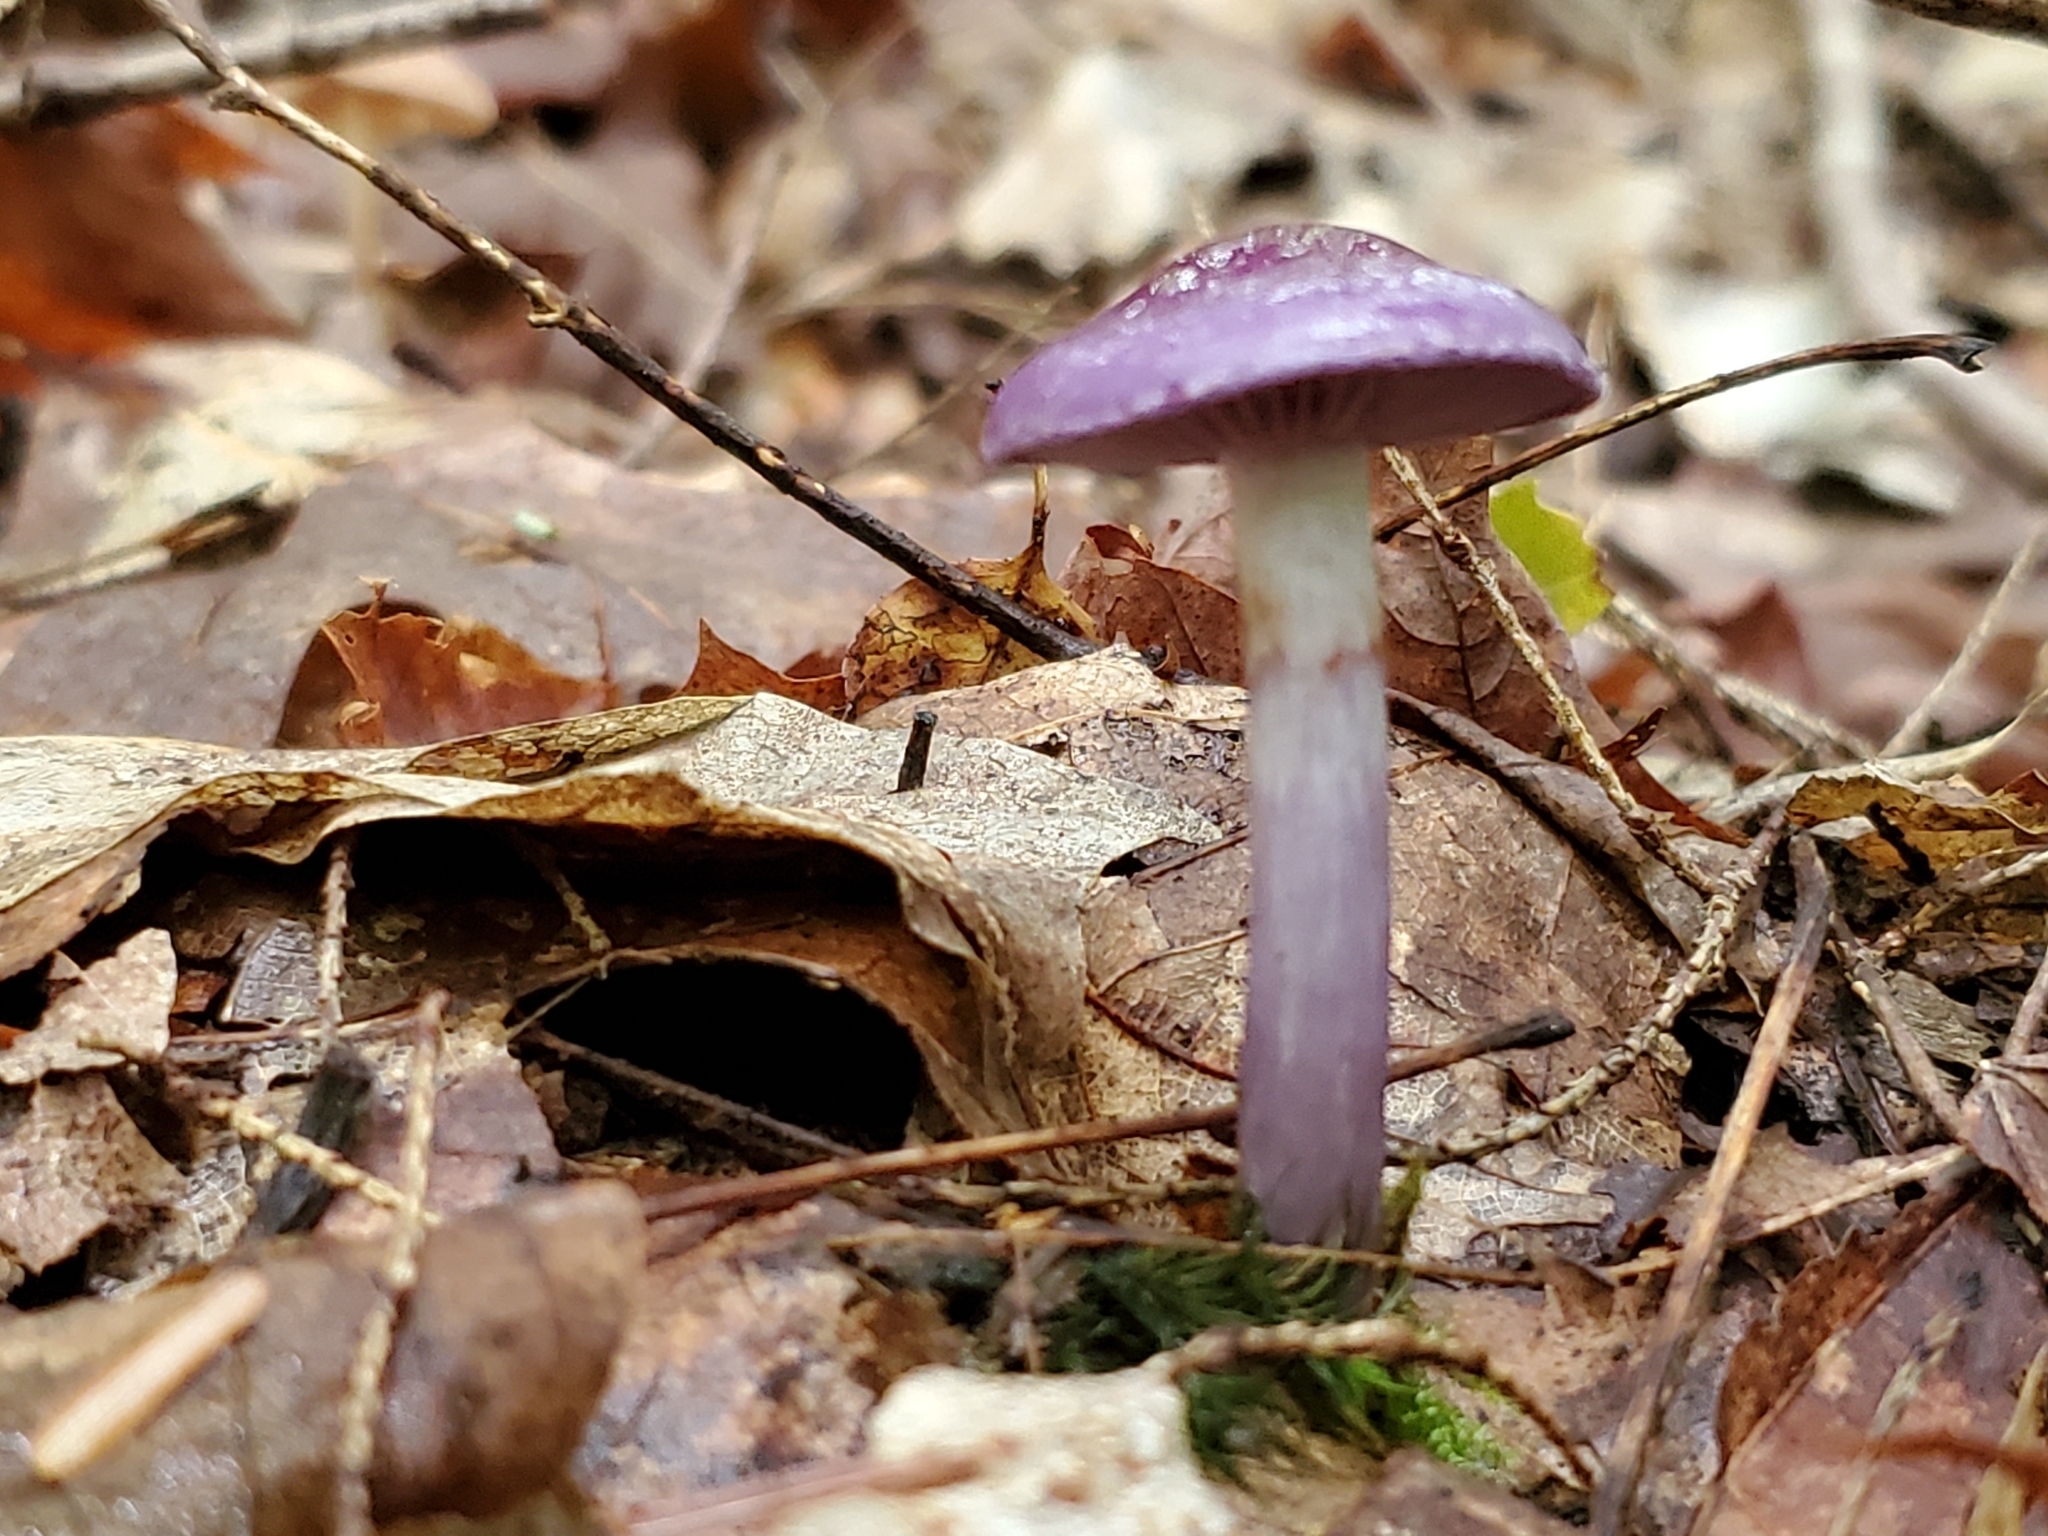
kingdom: Fungi
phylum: Basidiomycota
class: Agaricomycetes
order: Agaricales
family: Cortinariaceae
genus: Cortinarius
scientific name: Cortinarius iodes
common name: Viscid violet cort
